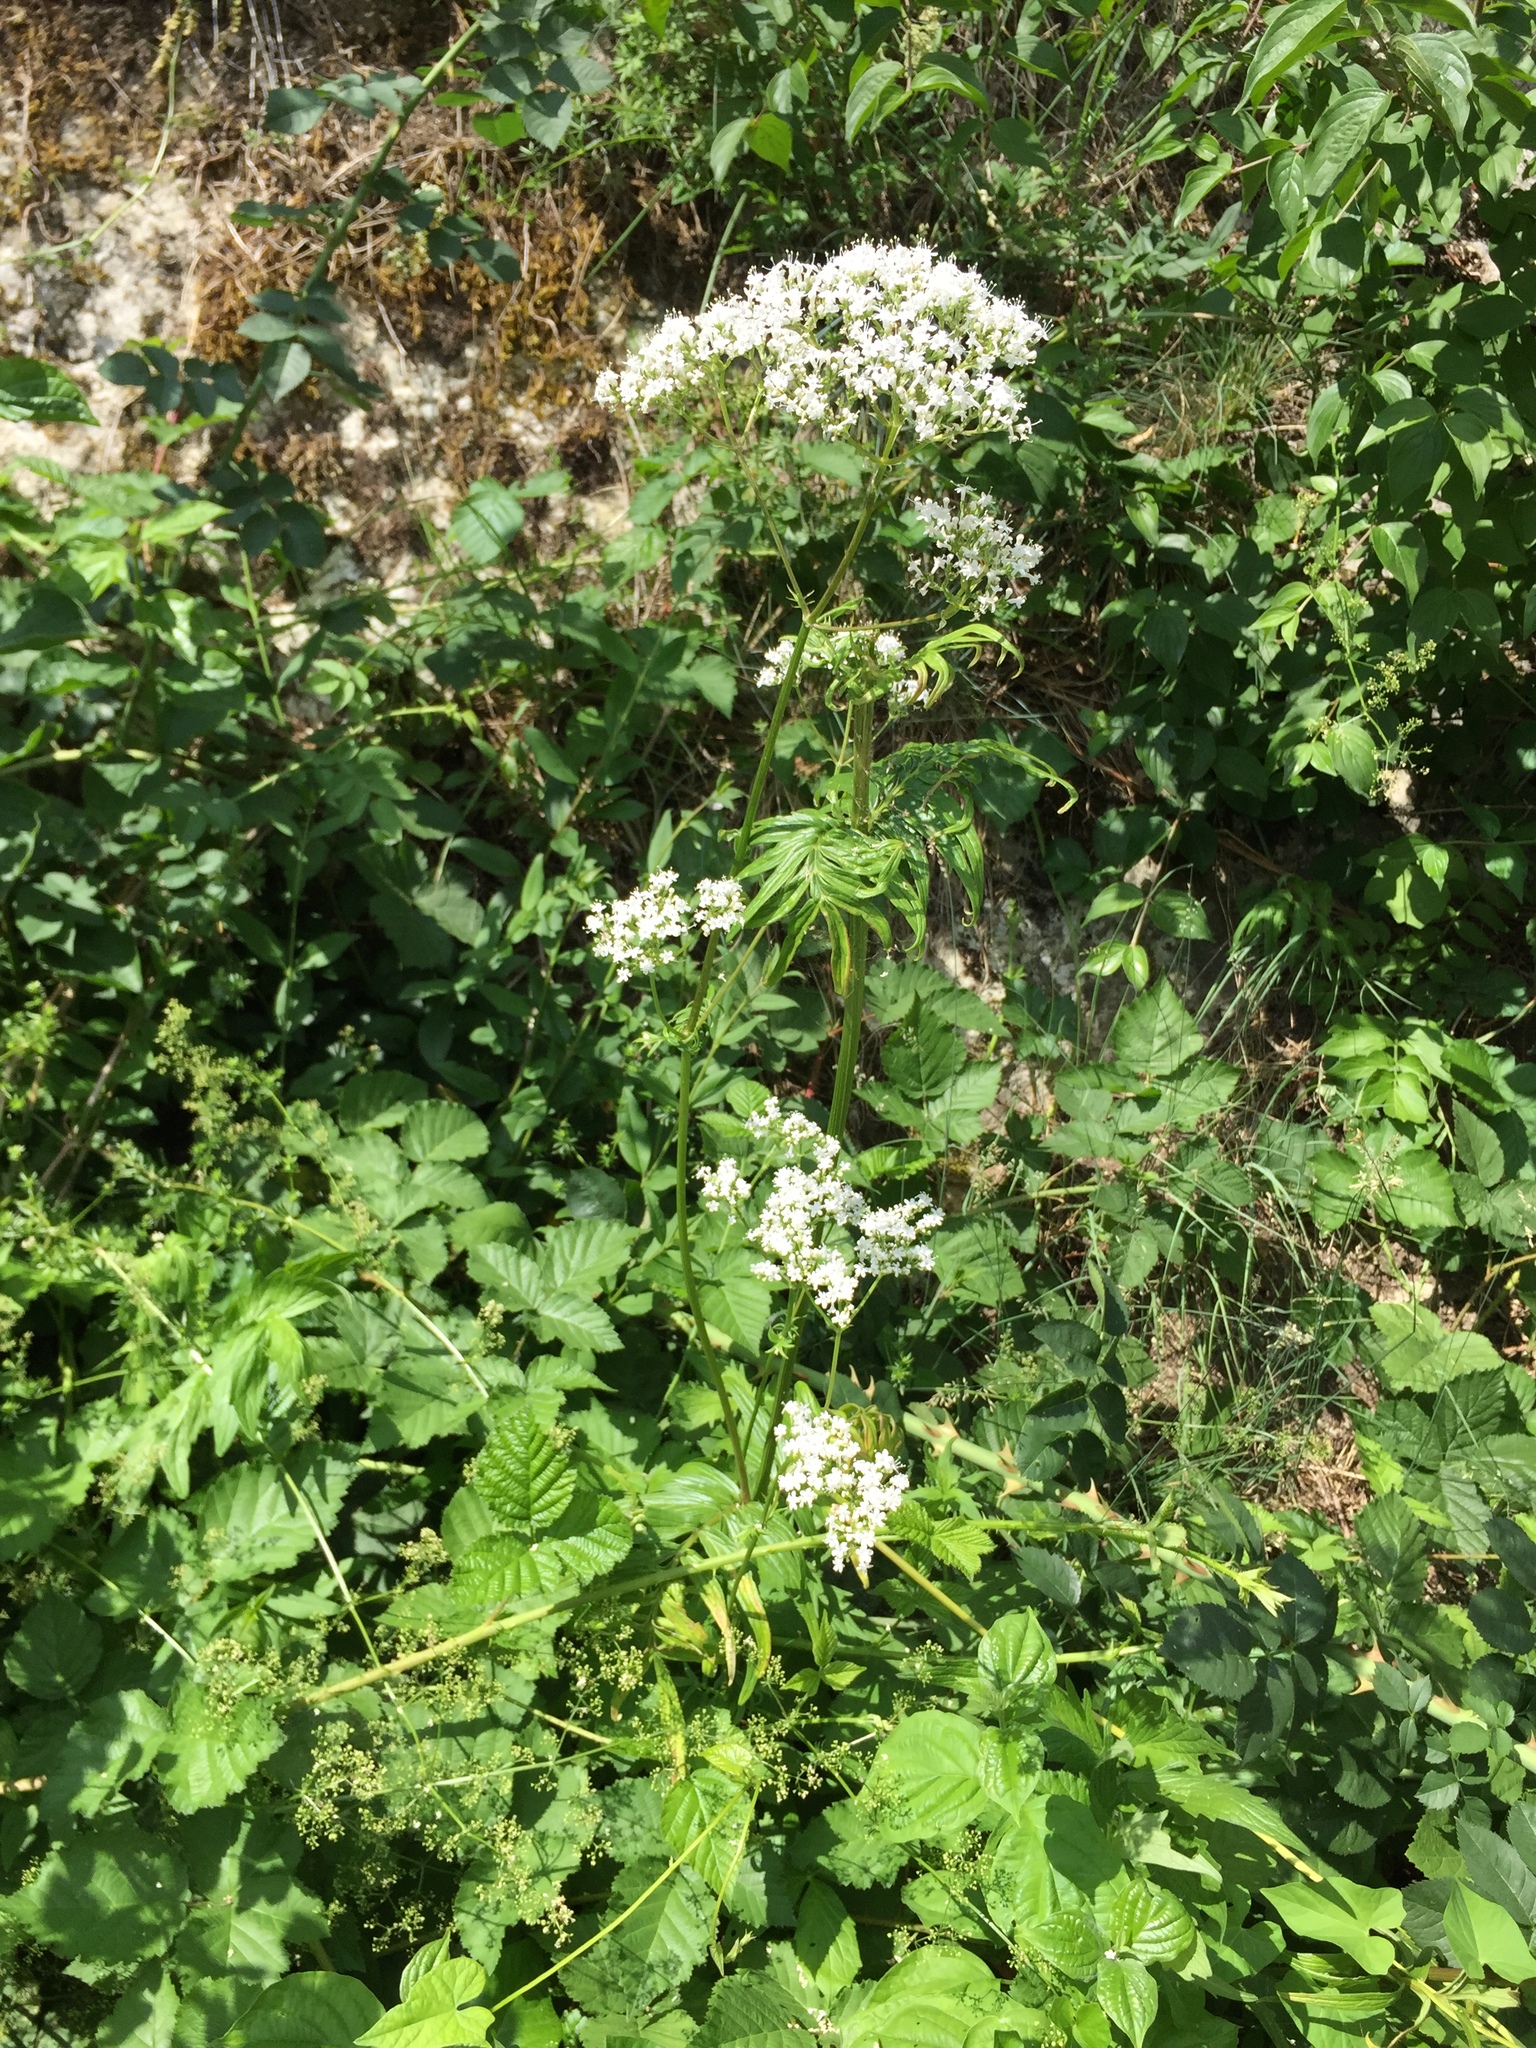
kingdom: Plantae
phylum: Tracheophyta
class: Magnoliopsida
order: Dipsacales
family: Caprifoliaceae
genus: Valeriana
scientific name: Valeriana officinalis
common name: Common valerian
